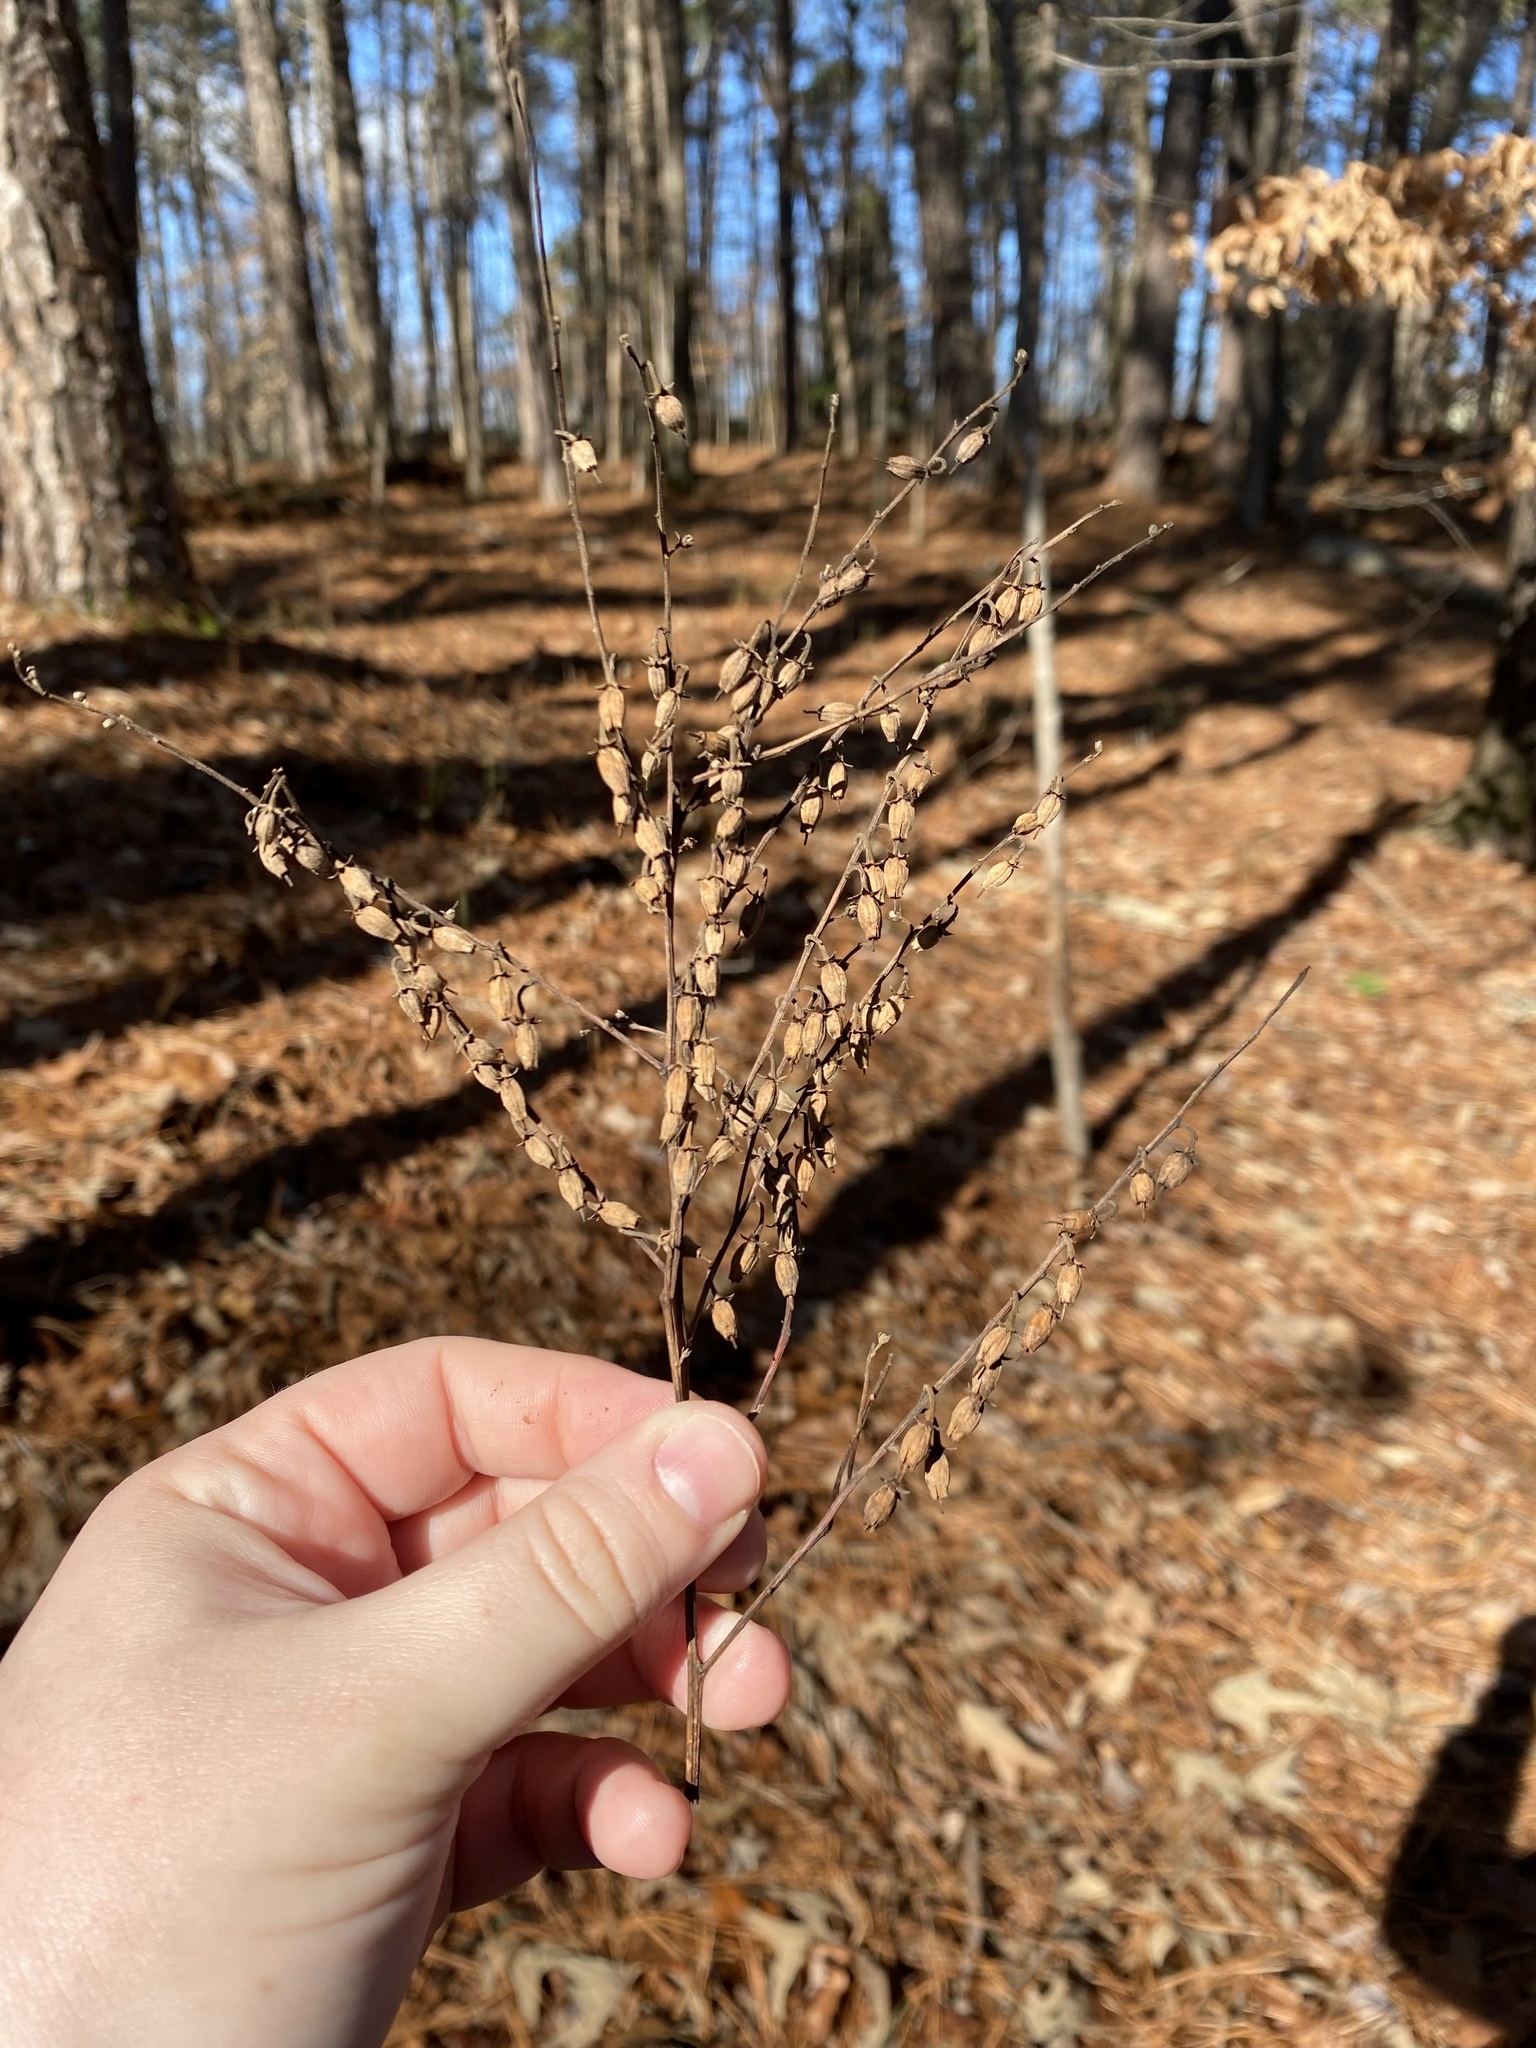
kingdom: Plantae
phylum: Tracheophyta
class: Magnoliopsida
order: Ericales
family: Ericaceae
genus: Oxydendrum
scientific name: Oxydendrum arboreum
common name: Sourwood
